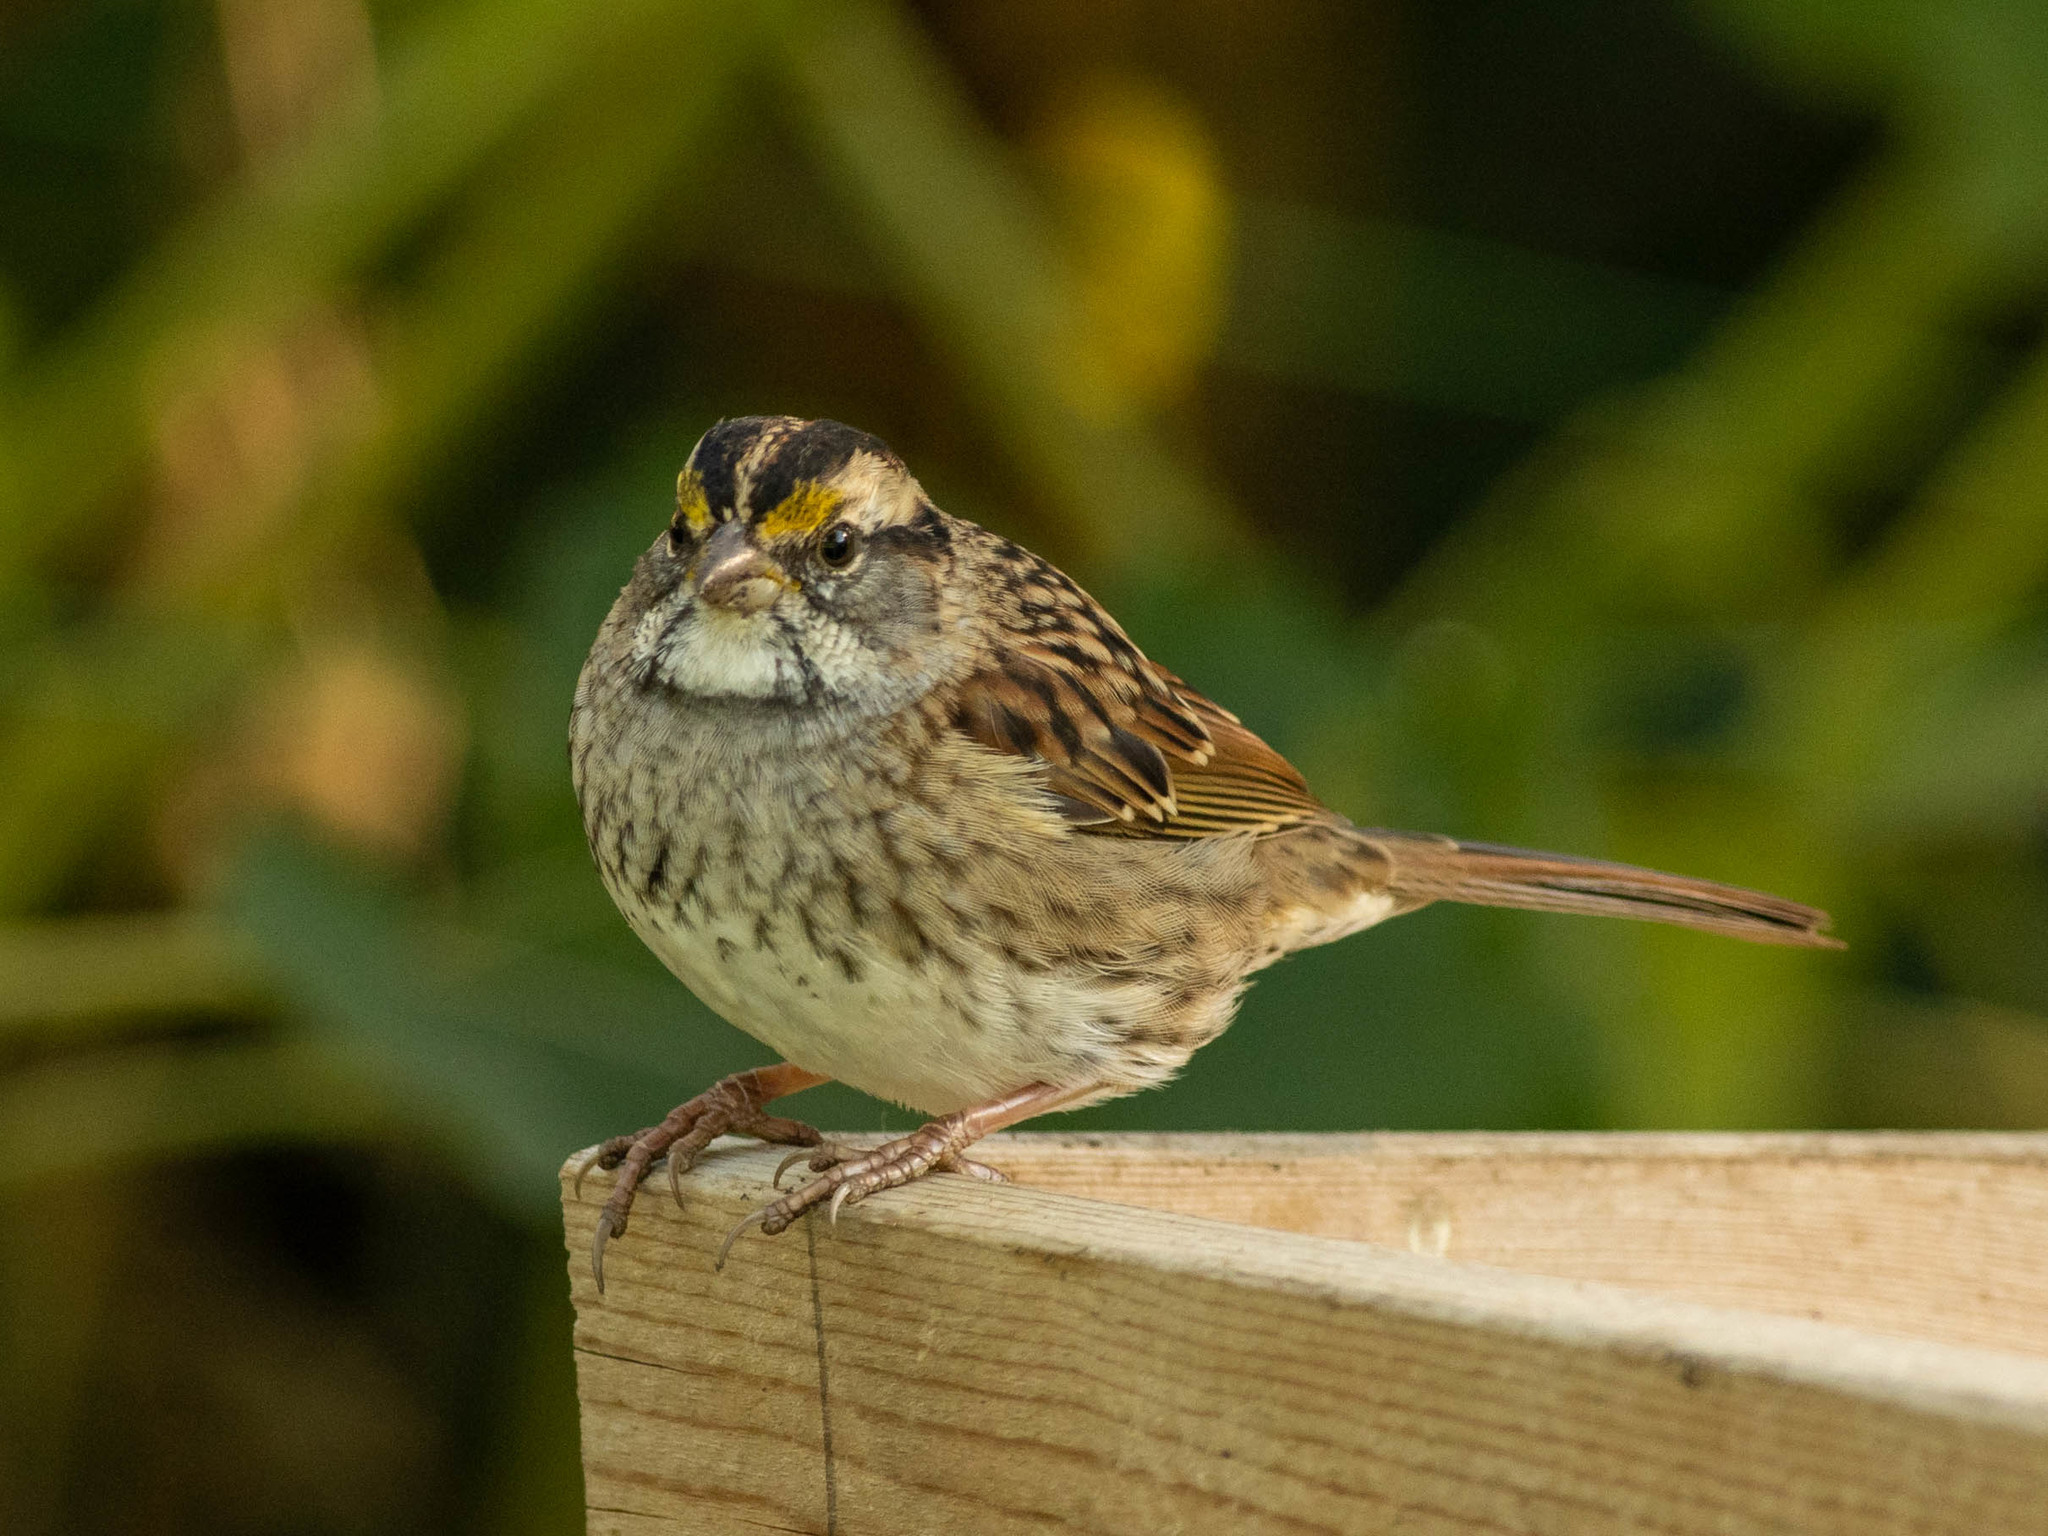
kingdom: Animalia
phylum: Chordata
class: Aves
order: Passeriformes
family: Passerellidae
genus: Zonotrichia
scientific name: Zonotrichia albicollis
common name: White-throated sparrow
